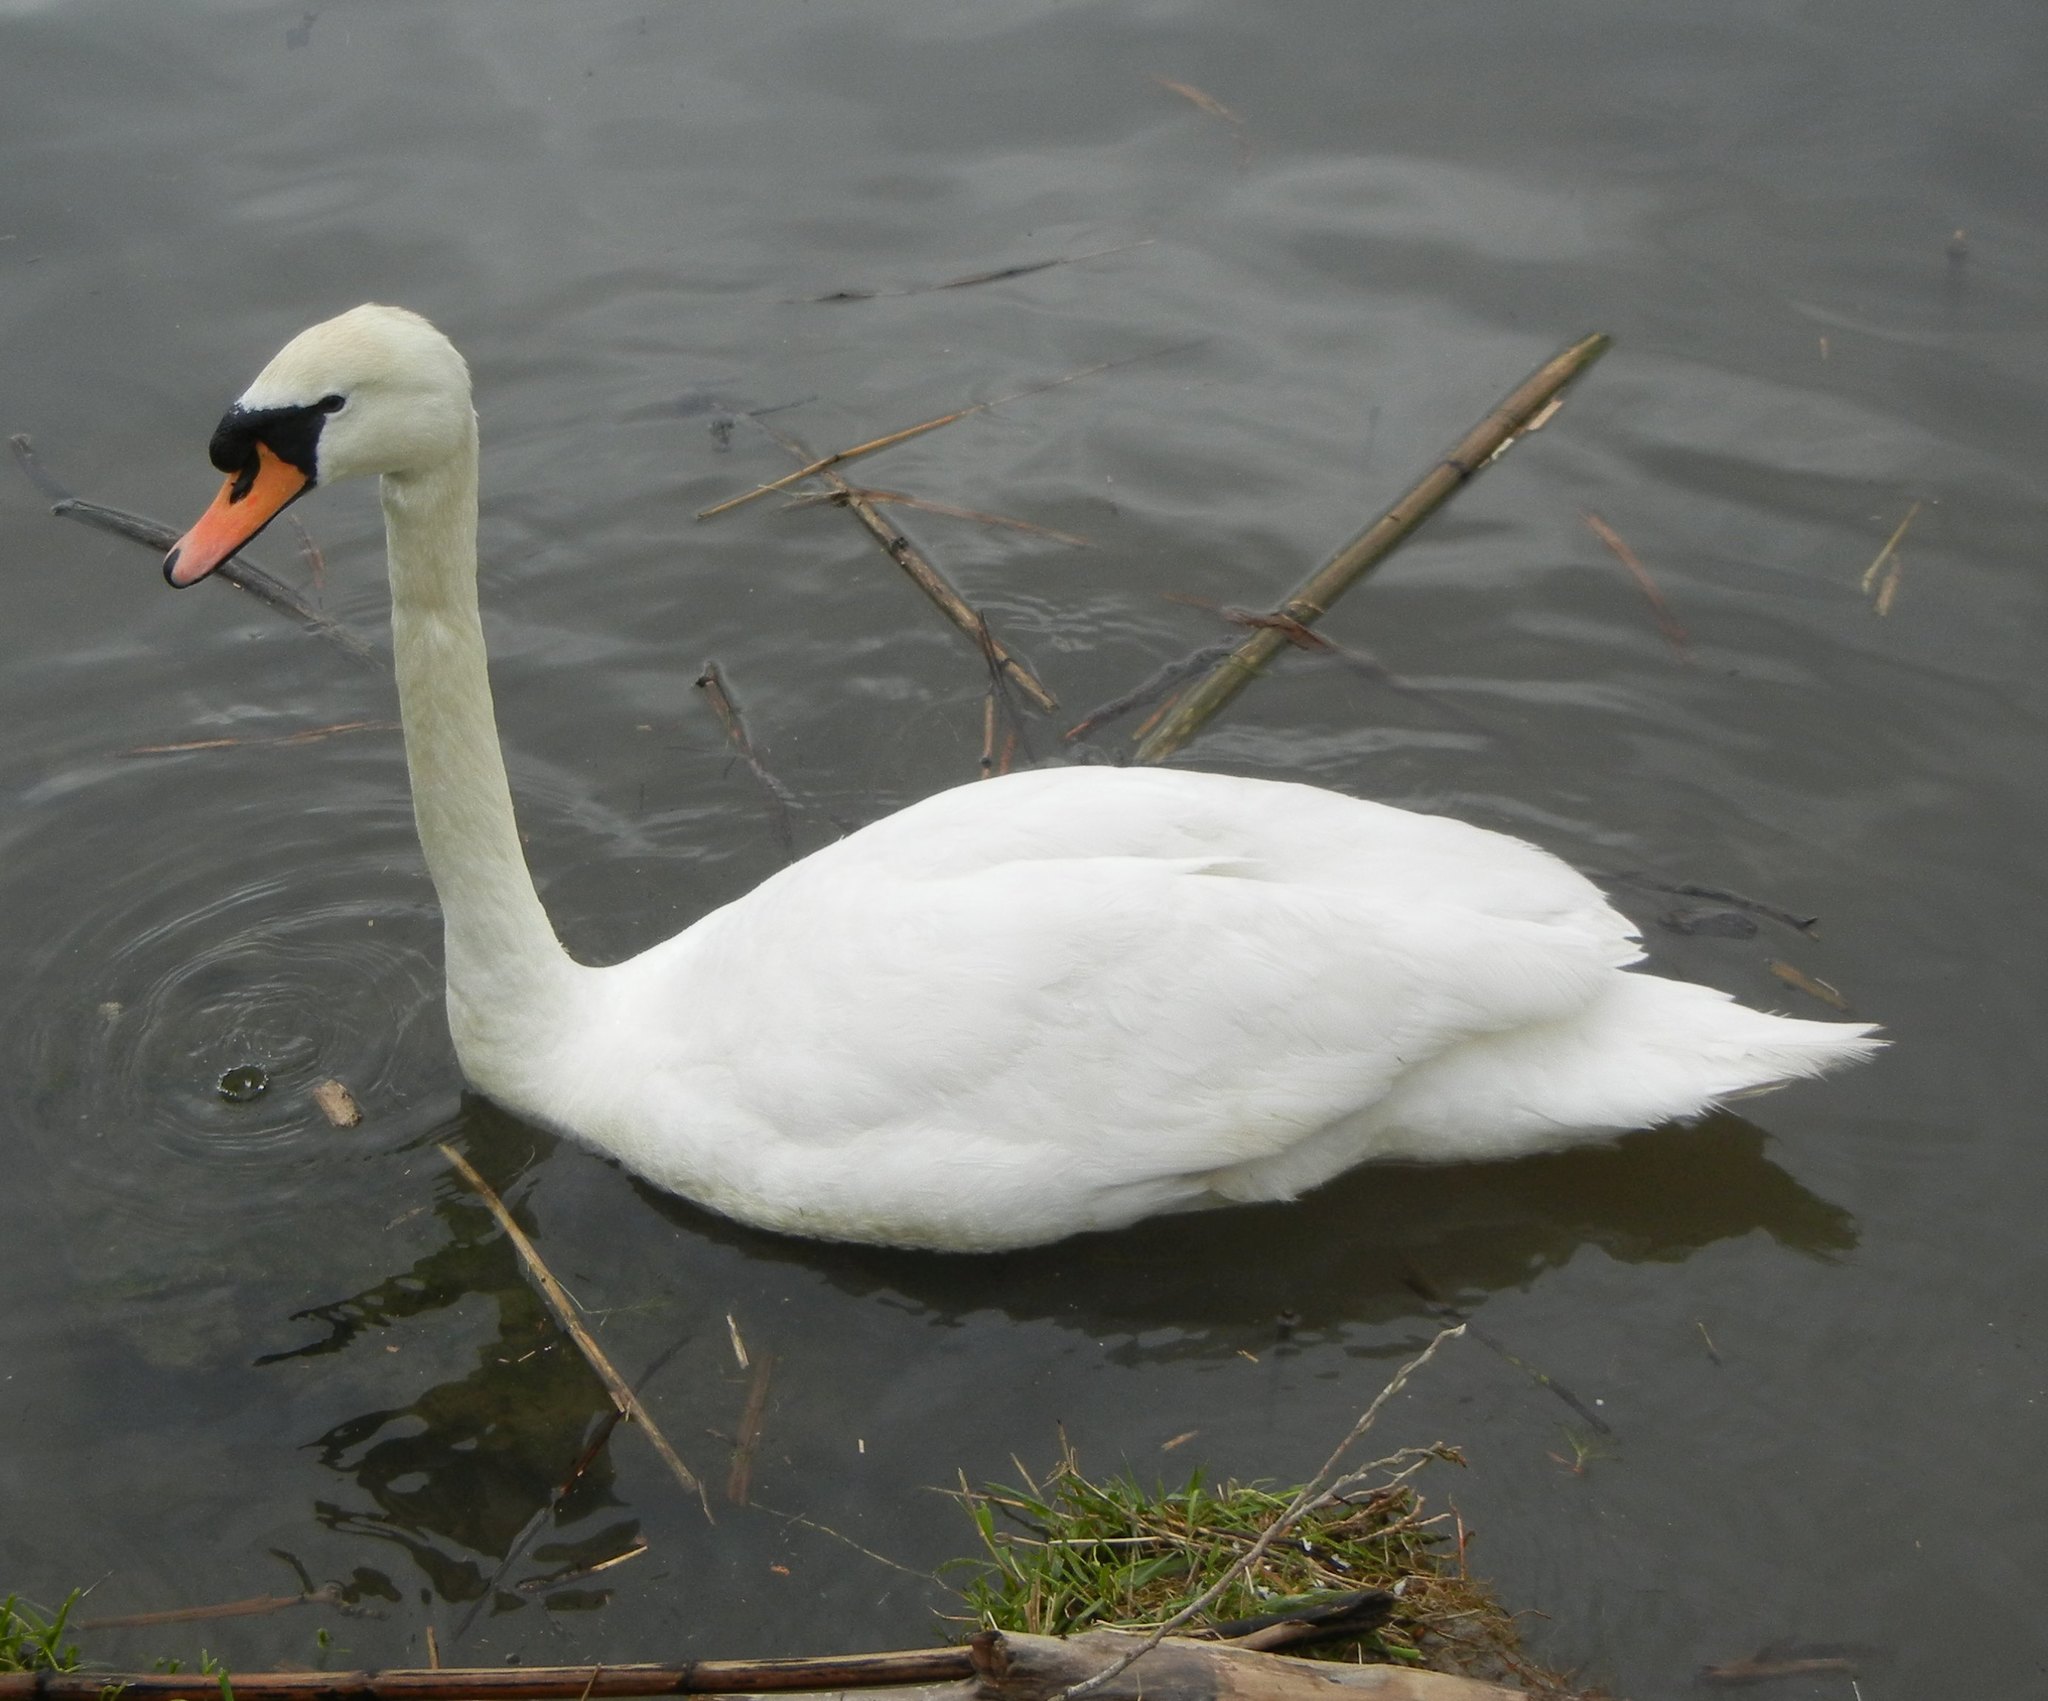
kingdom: Animalia
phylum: Chordata
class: Aves
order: Anseriformes
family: Anatidae
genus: Cygnus
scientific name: Cygnus olor
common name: Mute swan
